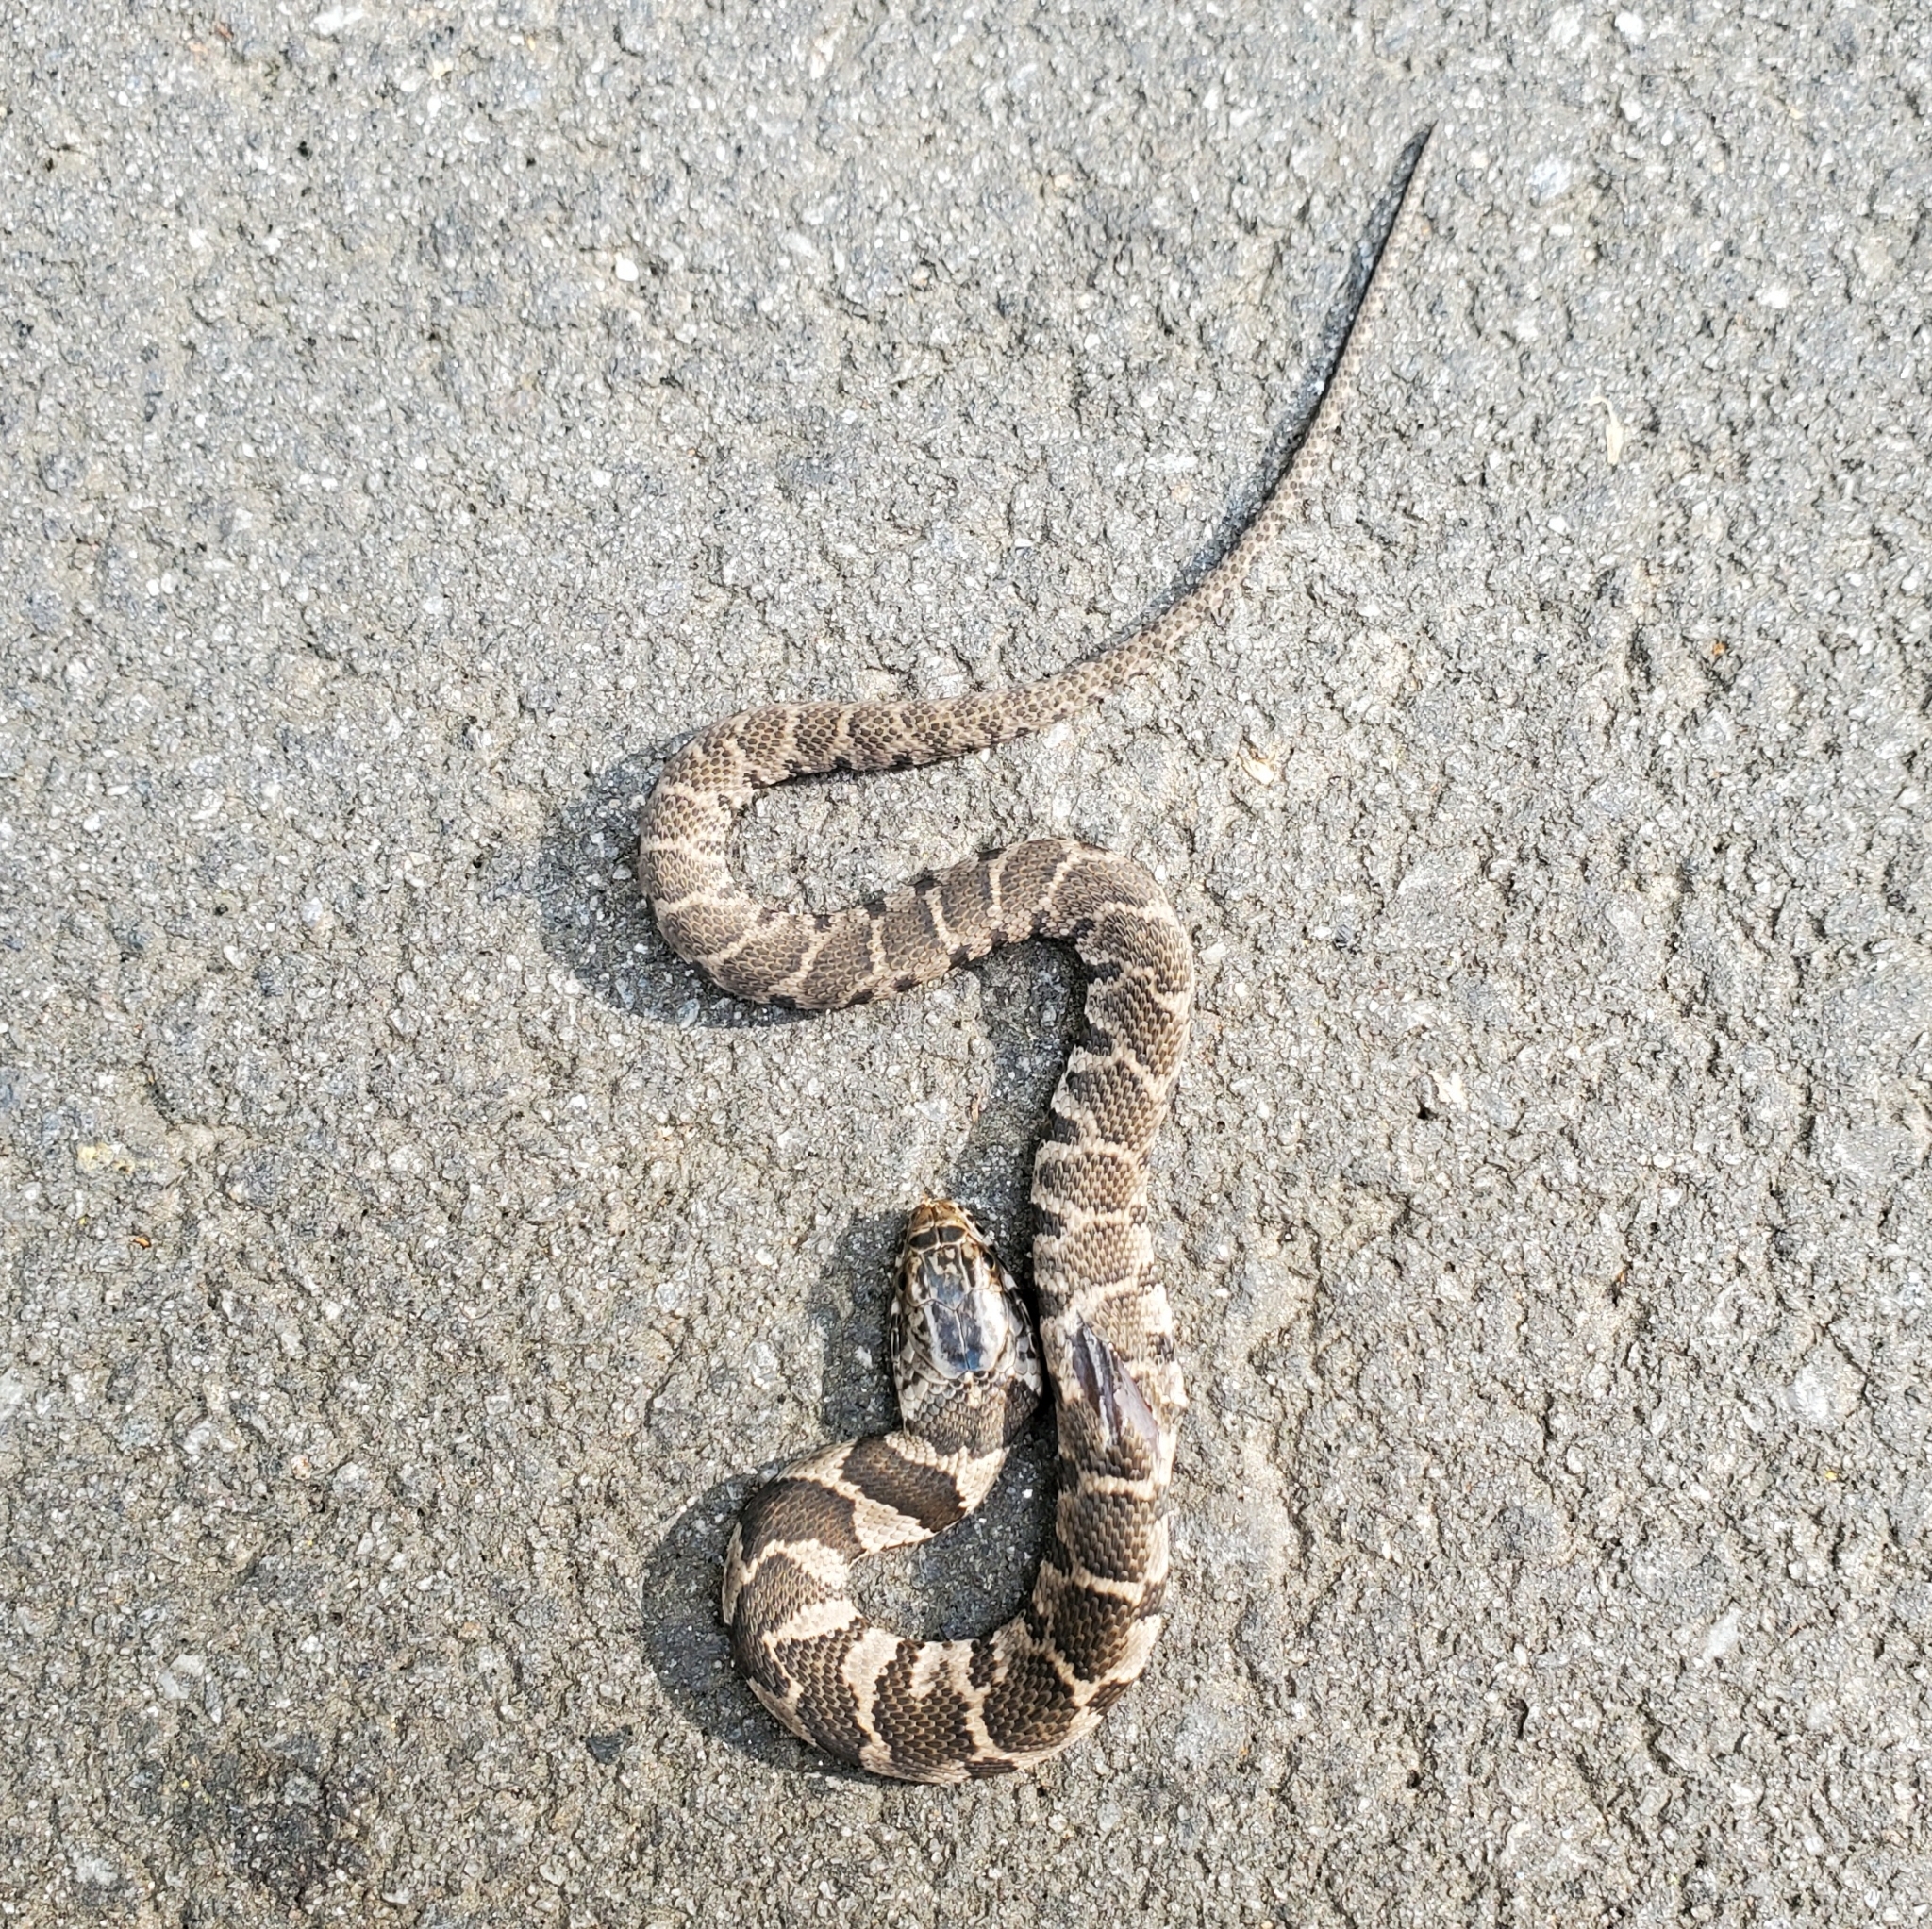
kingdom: Animalia
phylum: Chordata
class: Squamata
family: Colubridae
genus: Nerodia
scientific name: Nerodia sipedon
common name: Northern water snake
